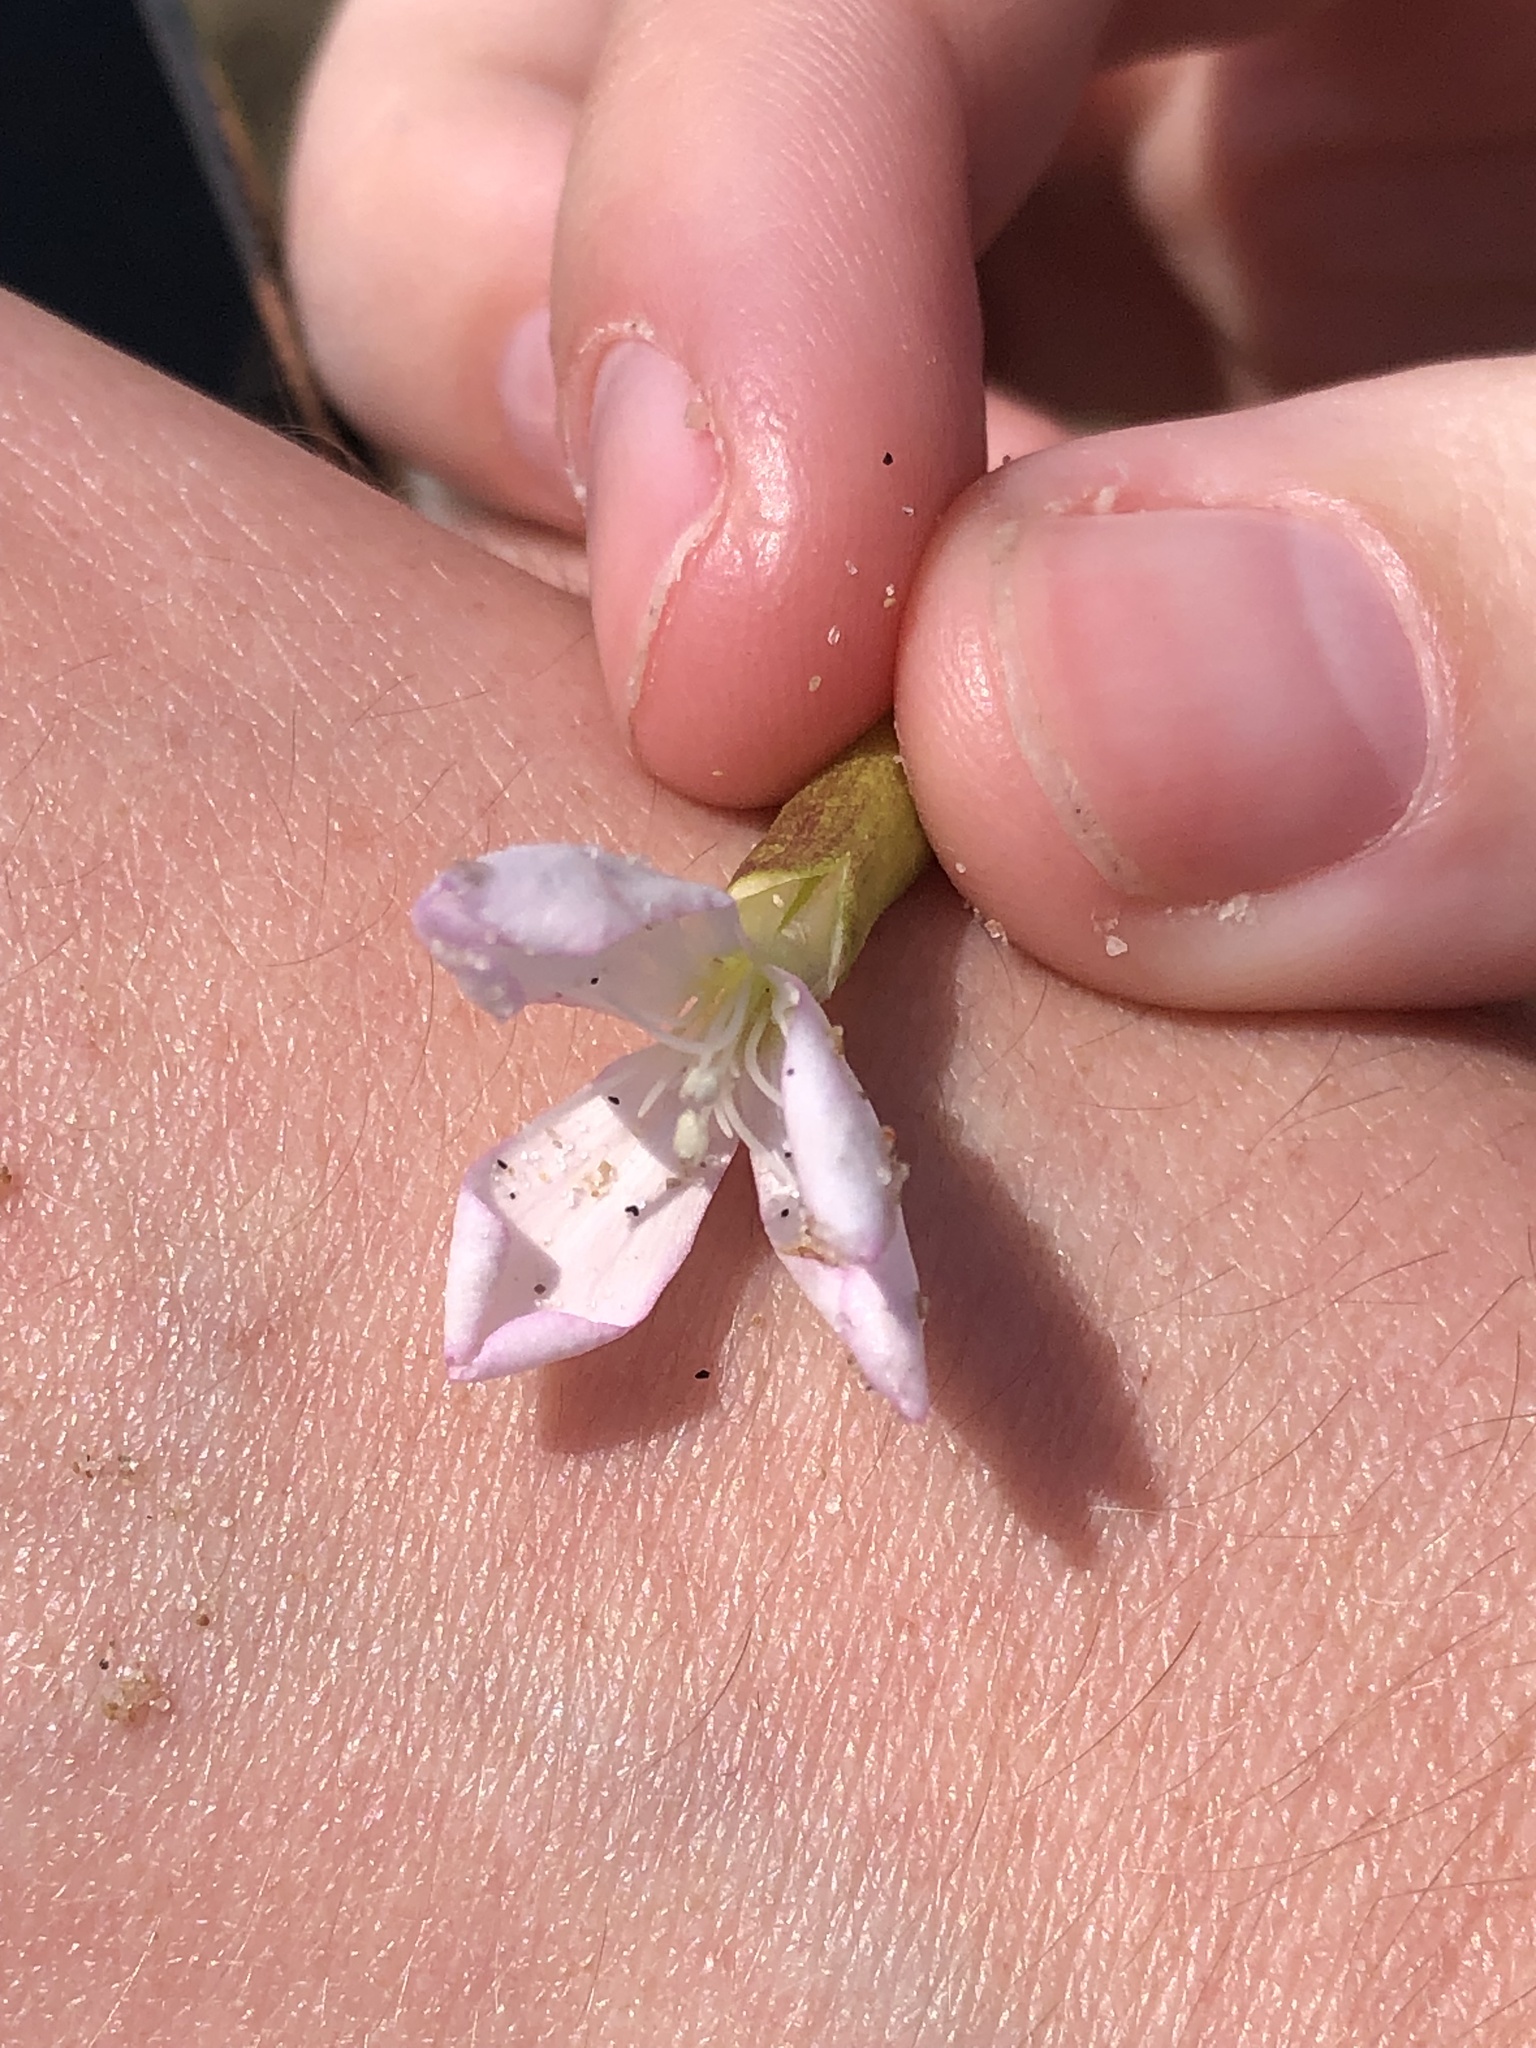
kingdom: Plantae
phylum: Tracheophyta
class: Magnoliopsida
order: Caryophyllales
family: Caryophyllaceae
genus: Saponaria
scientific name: Saponaria officinalis
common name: Soapwort
